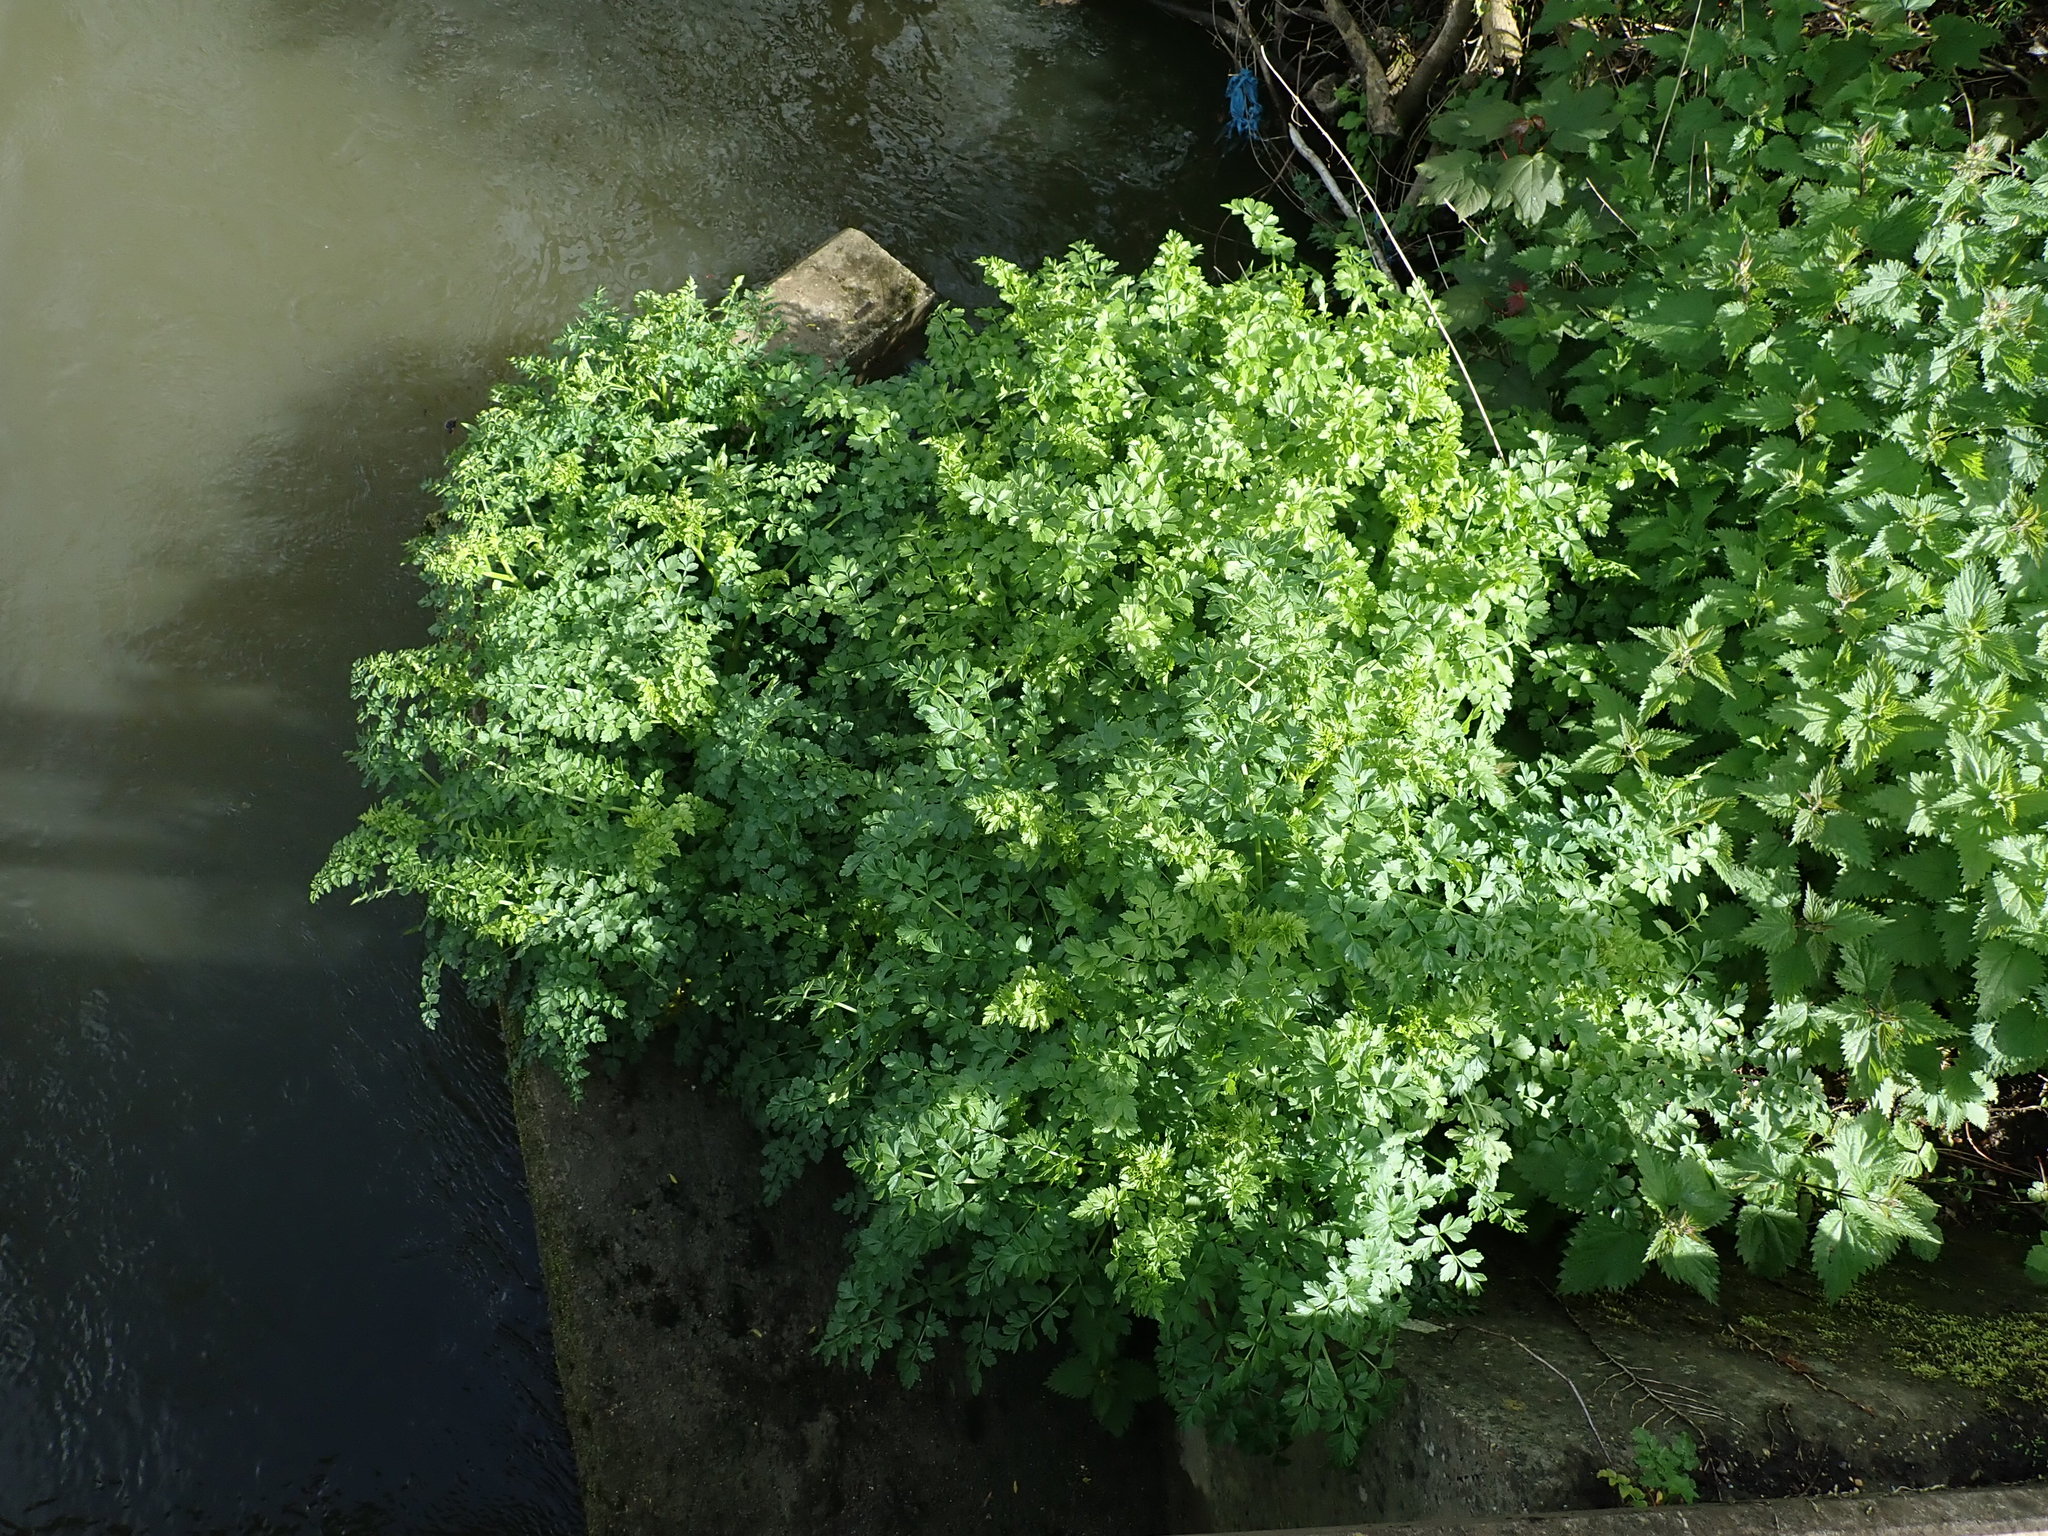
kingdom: Plantae
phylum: Tracheophyta
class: Magnoliopsida
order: Apiales
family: Apiaceae
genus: Oenanthe
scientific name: Oenanthe crocata
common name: Hemlock water-dropwort
